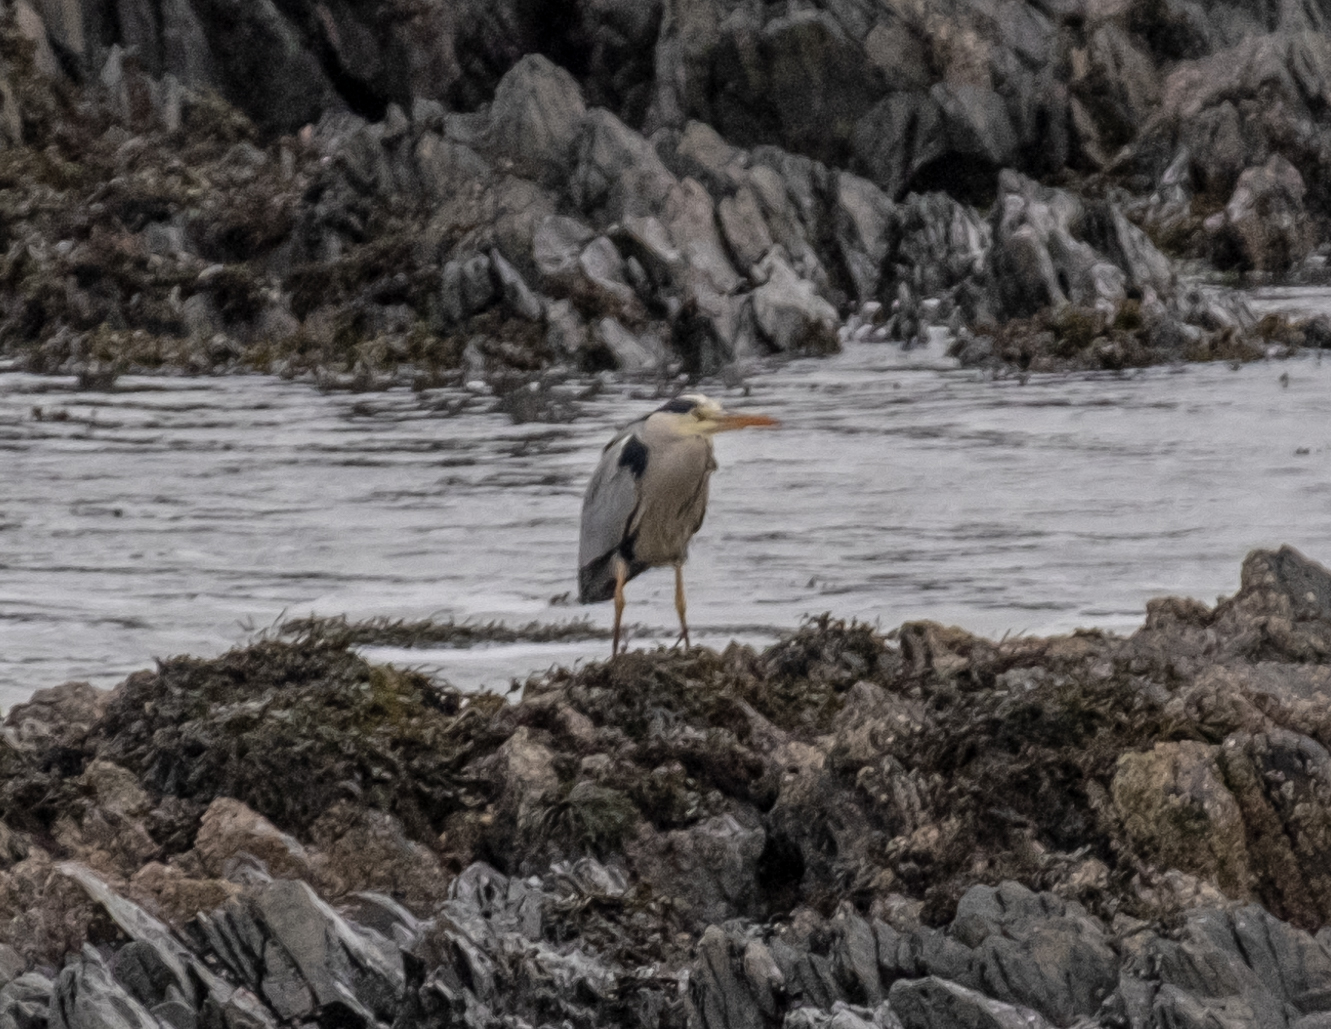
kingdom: Animalia
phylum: Chordata
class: Aves
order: Pelecaniformes
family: Ardeidae
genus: Ardea
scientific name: Ardea cinerea
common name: Grey heron
